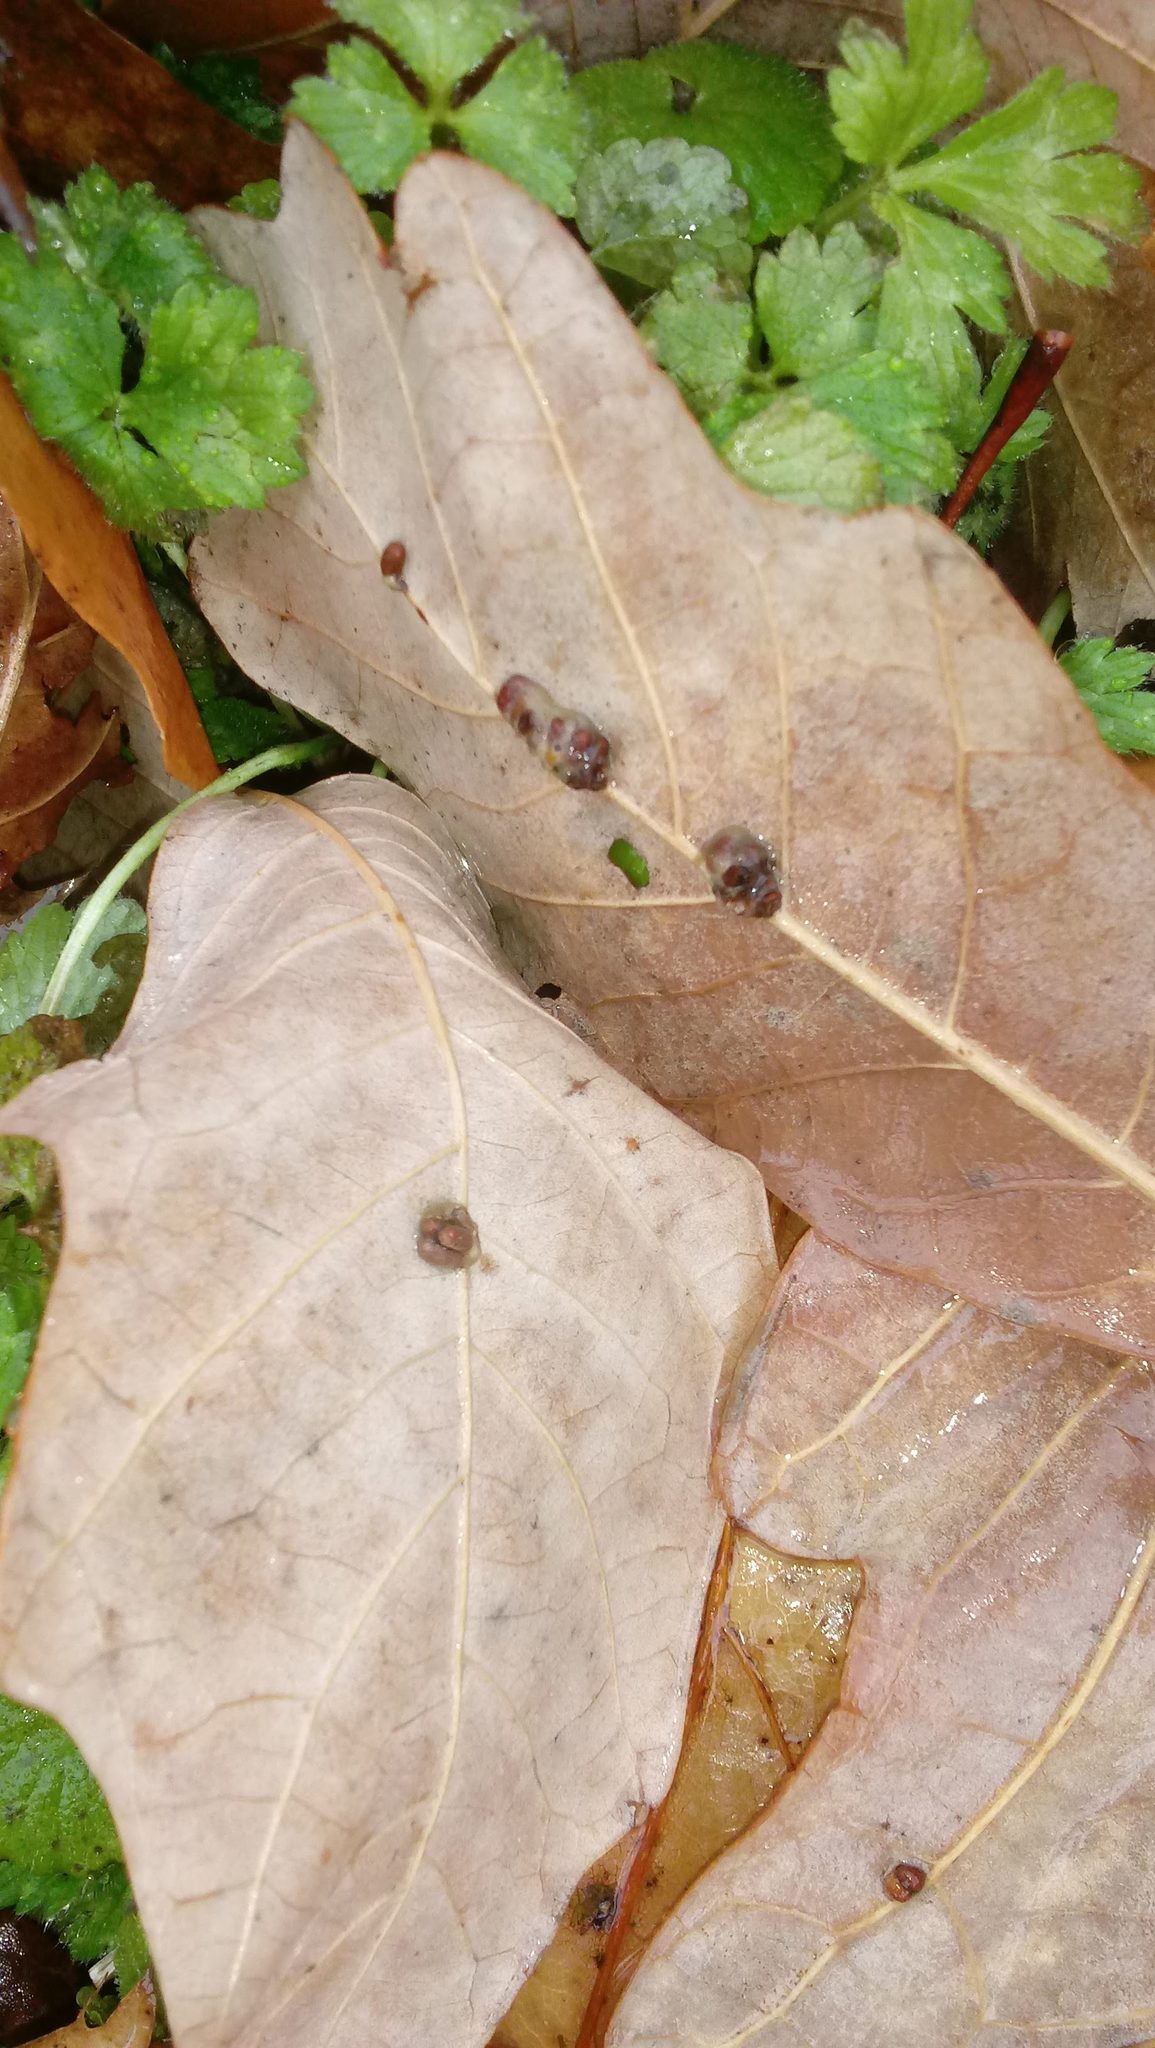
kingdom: Animalia
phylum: Arthropoda
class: Insecta
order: Hymenoptera
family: Cynipidae
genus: Andricus
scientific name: Andricus Druon ignotum
